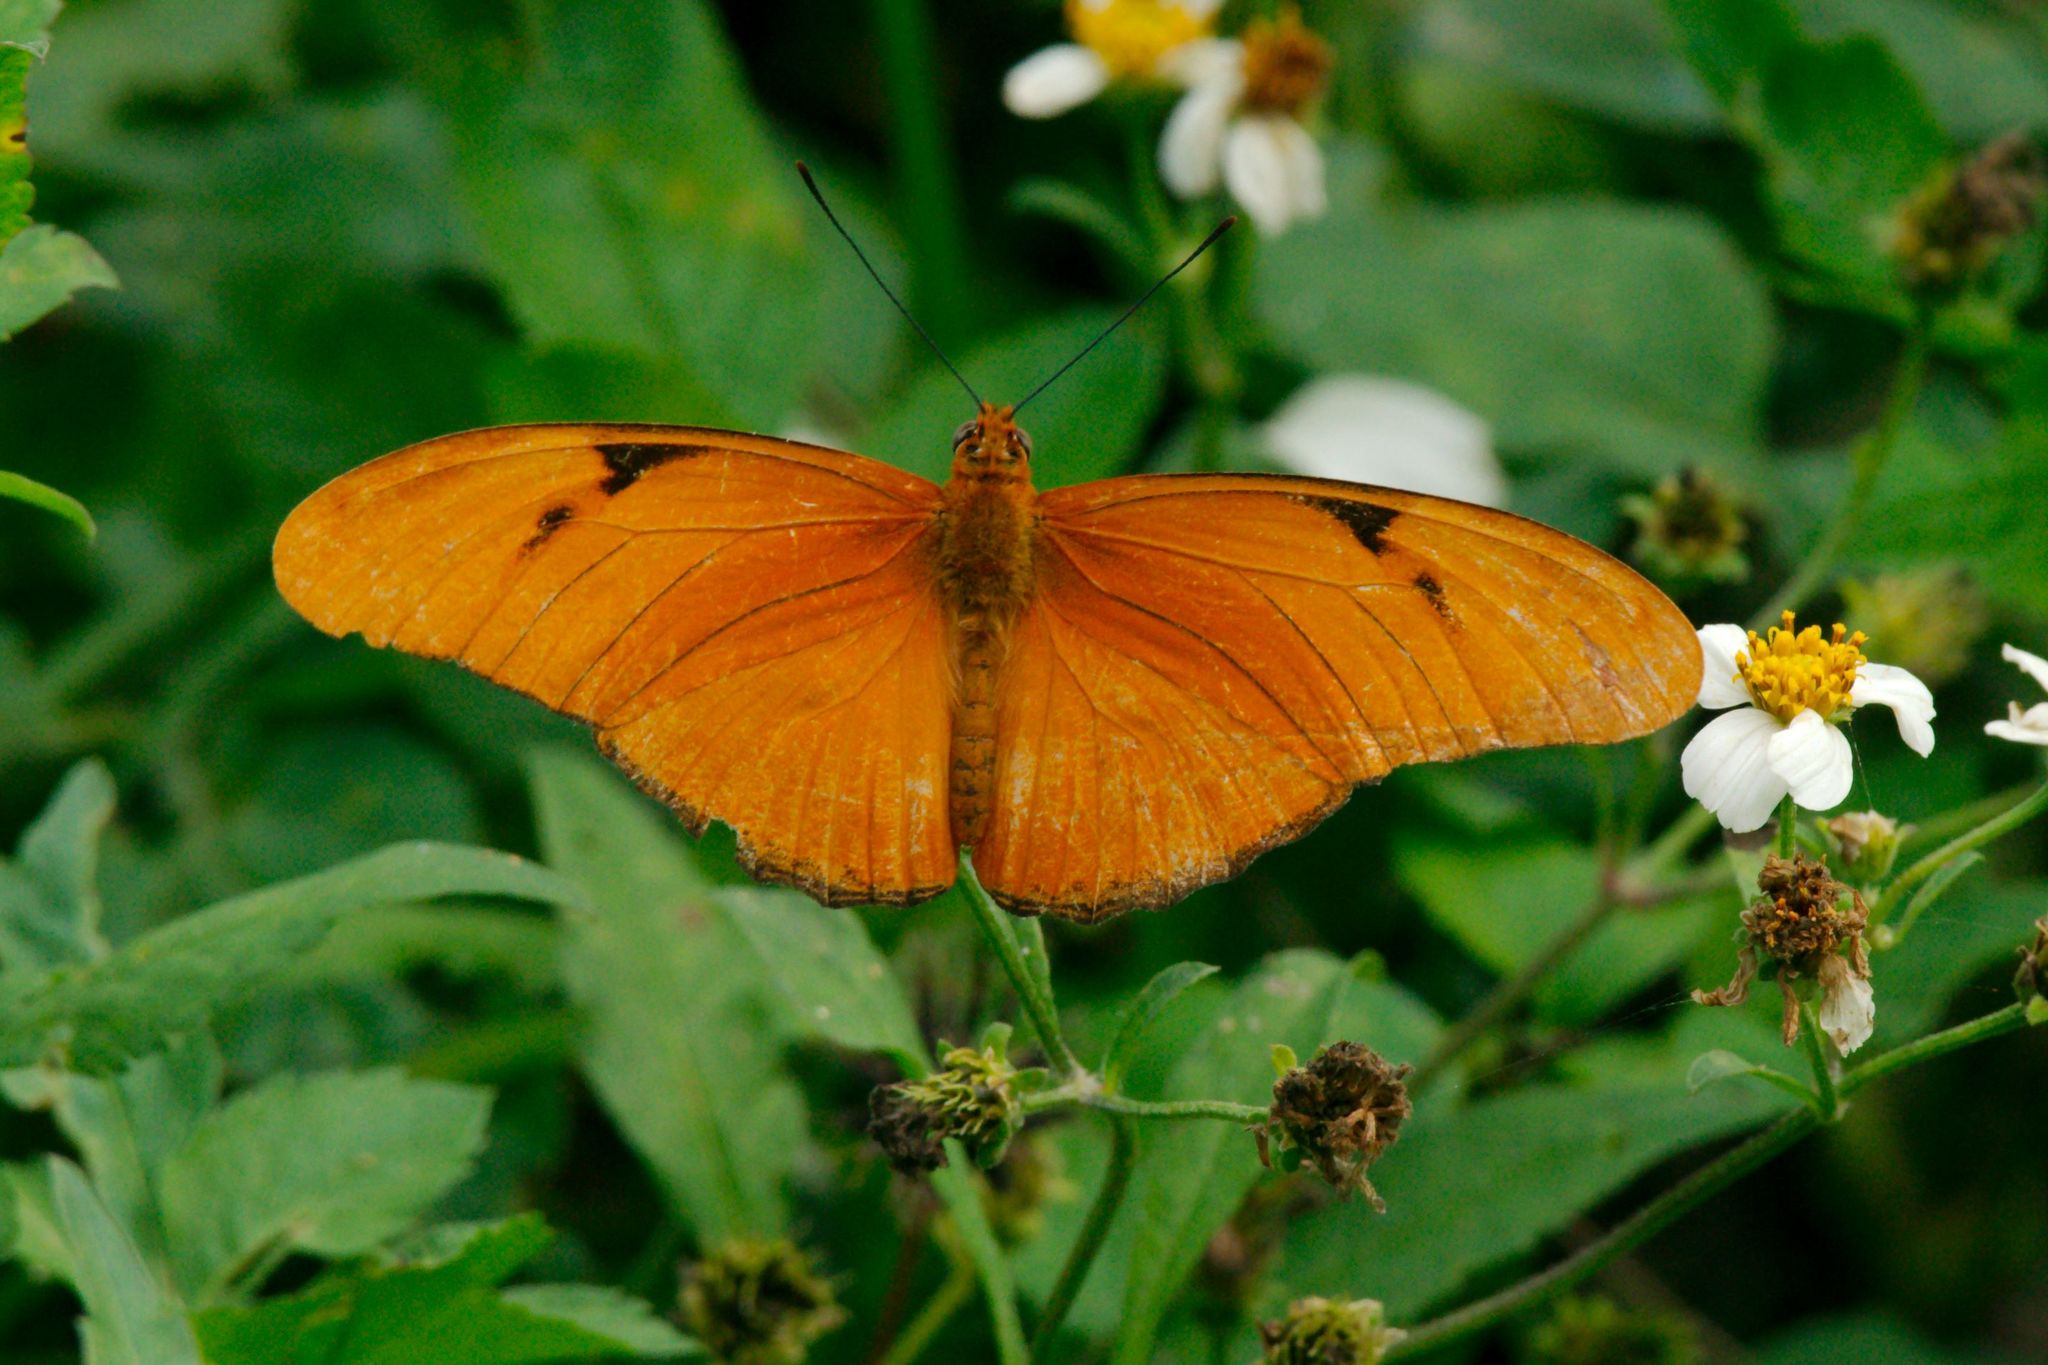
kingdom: Animalia
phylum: Arthropoda
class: Insecta
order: Lepidoptera
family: Nymphalidae
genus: Dryas
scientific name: Dryas iulia
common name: Flambeau
